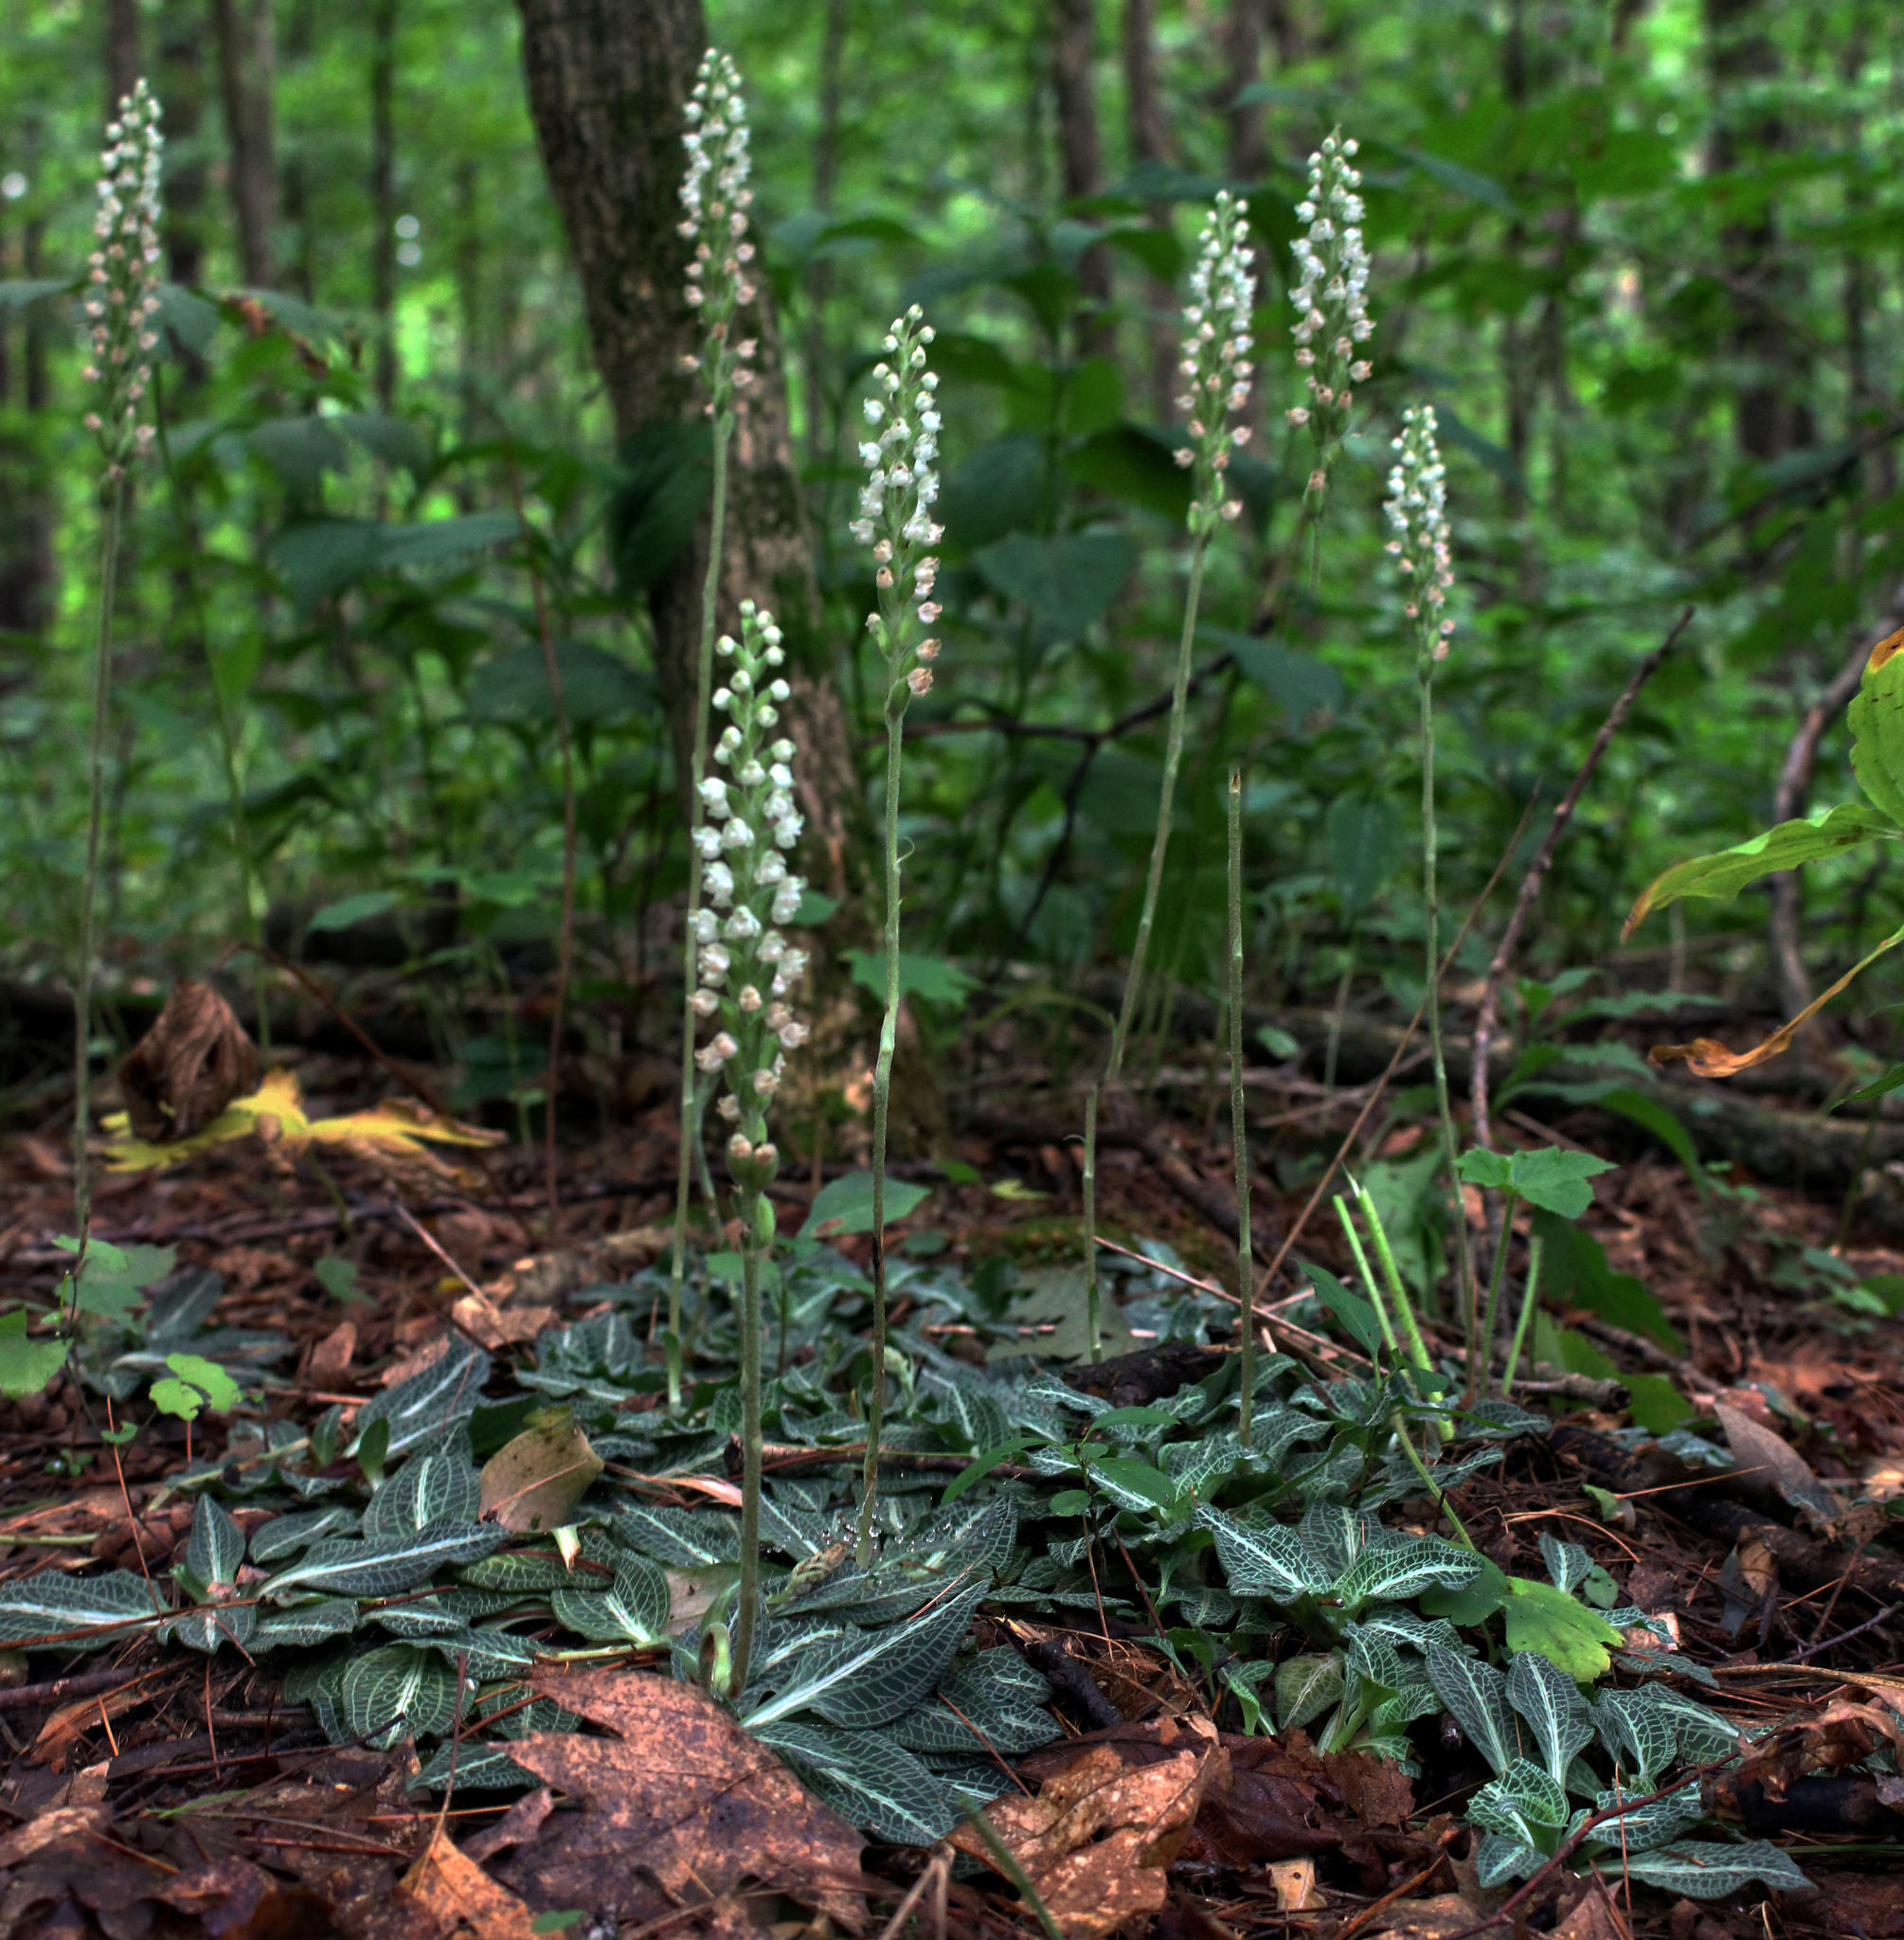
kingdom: Plantae
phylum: Tracheophyta
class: Liliopsida
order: Asparagales
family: Orchidaceae
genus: Goodyera
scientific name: Goodyera pubescens
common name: Downy rattlesnake-plantain
